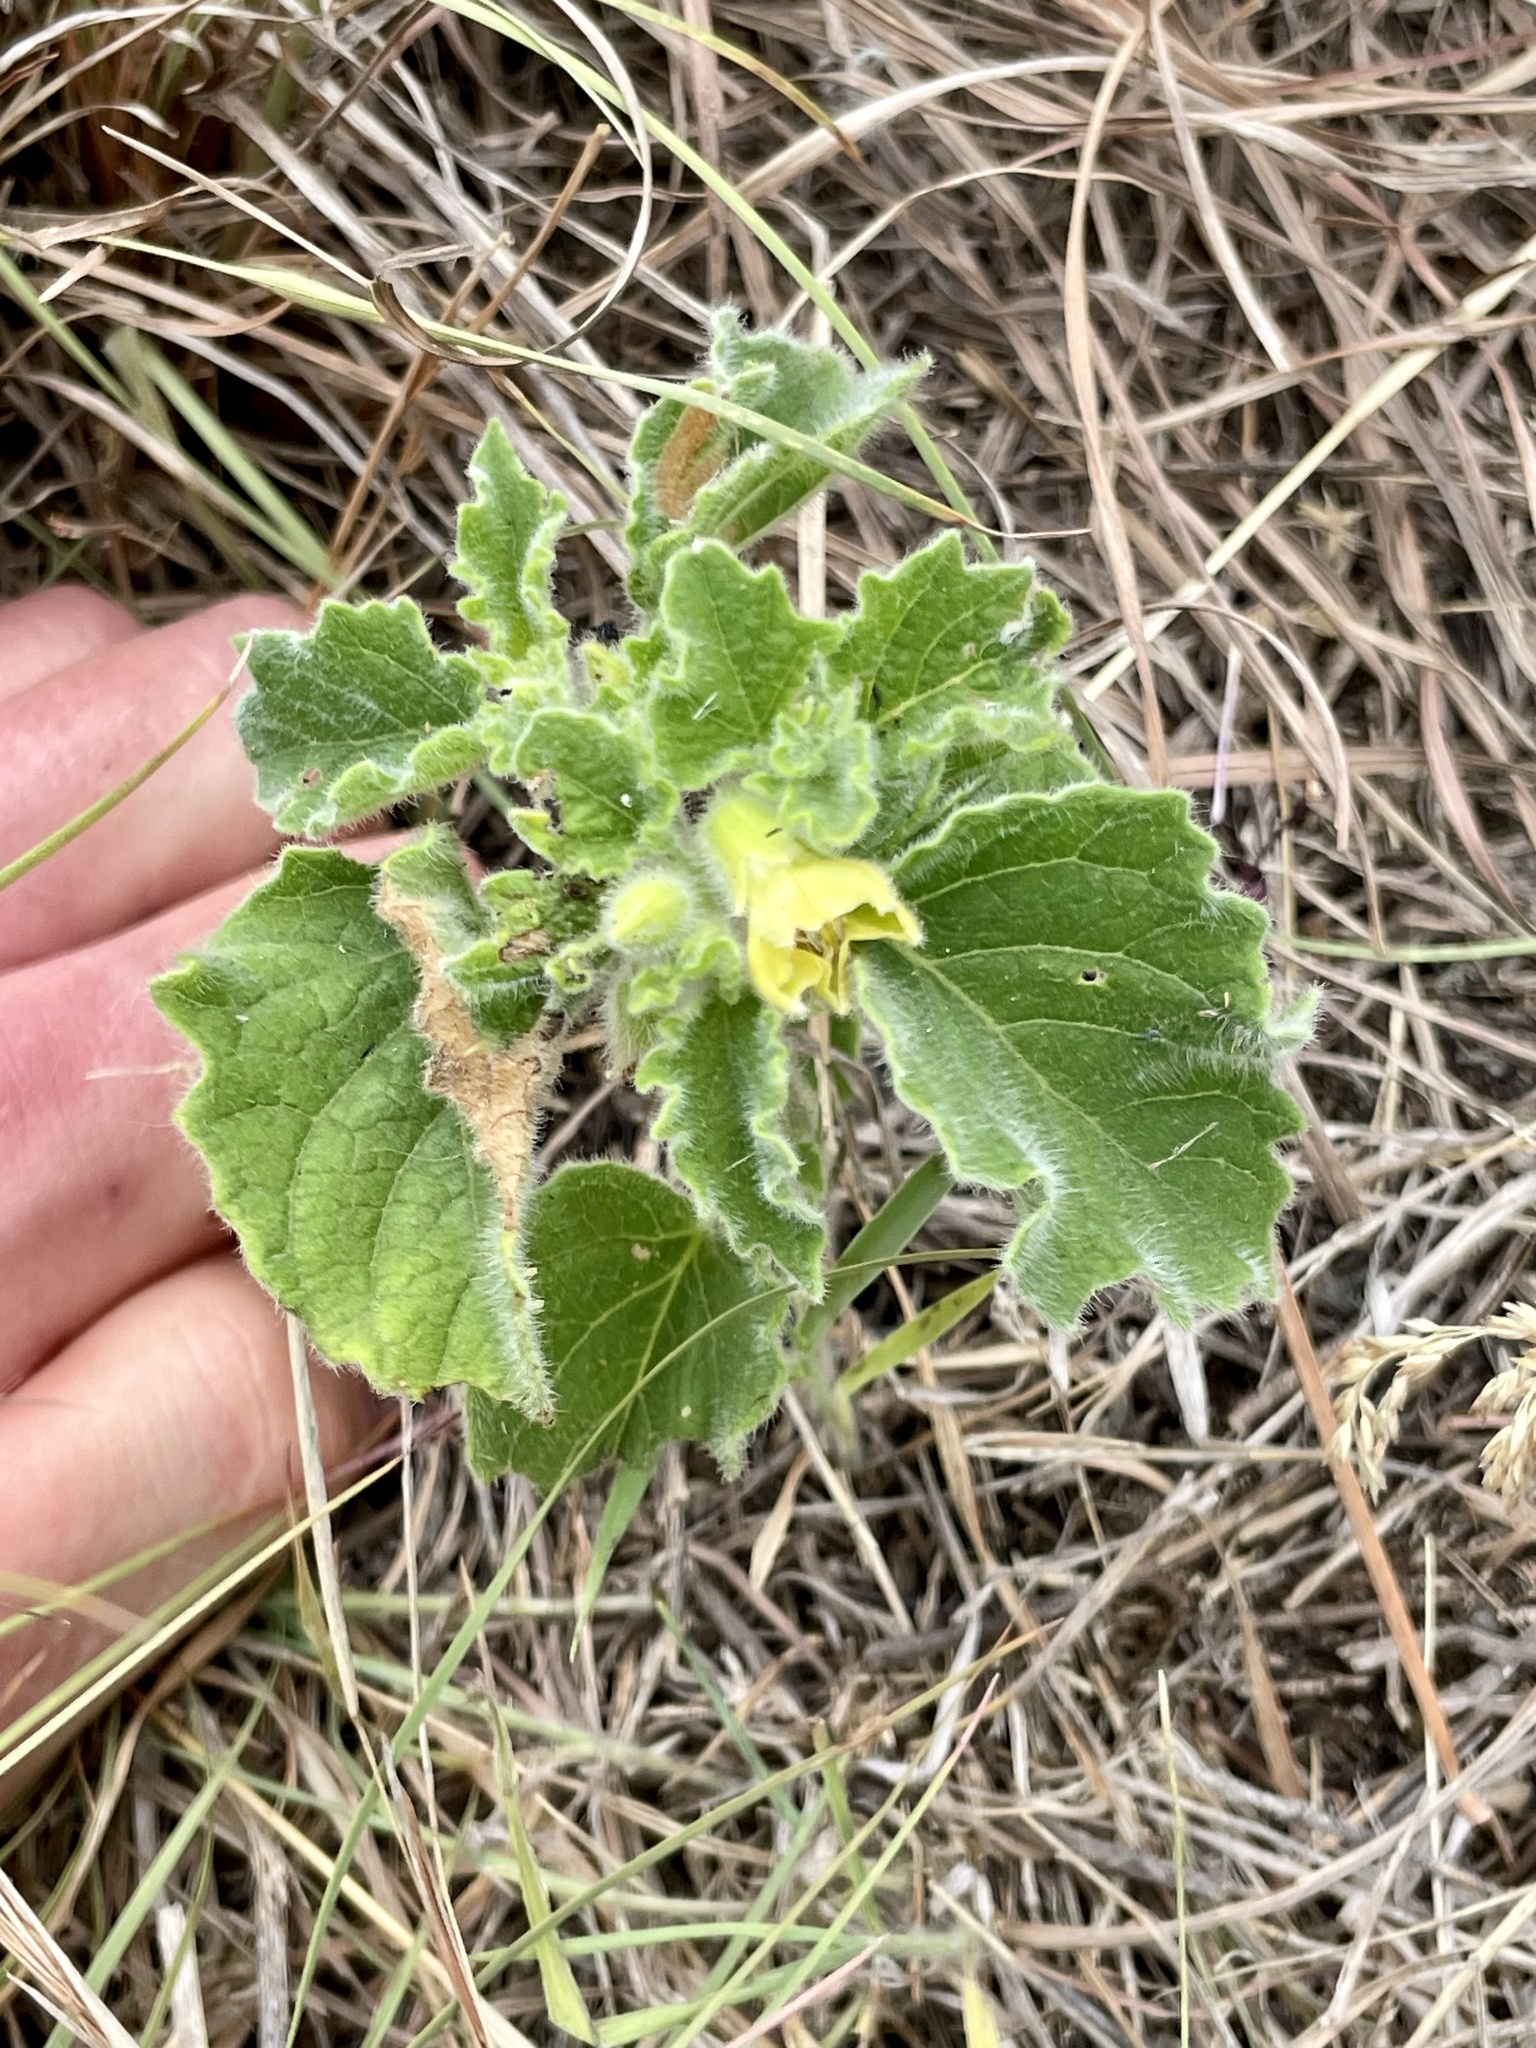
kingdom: Plantae
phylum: Tracheophyta
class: Magnoliopsida
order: Solanales
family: Solanaceae
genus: Physalis
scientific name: Physalis heterophylla
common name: Clammy ground-cherry
